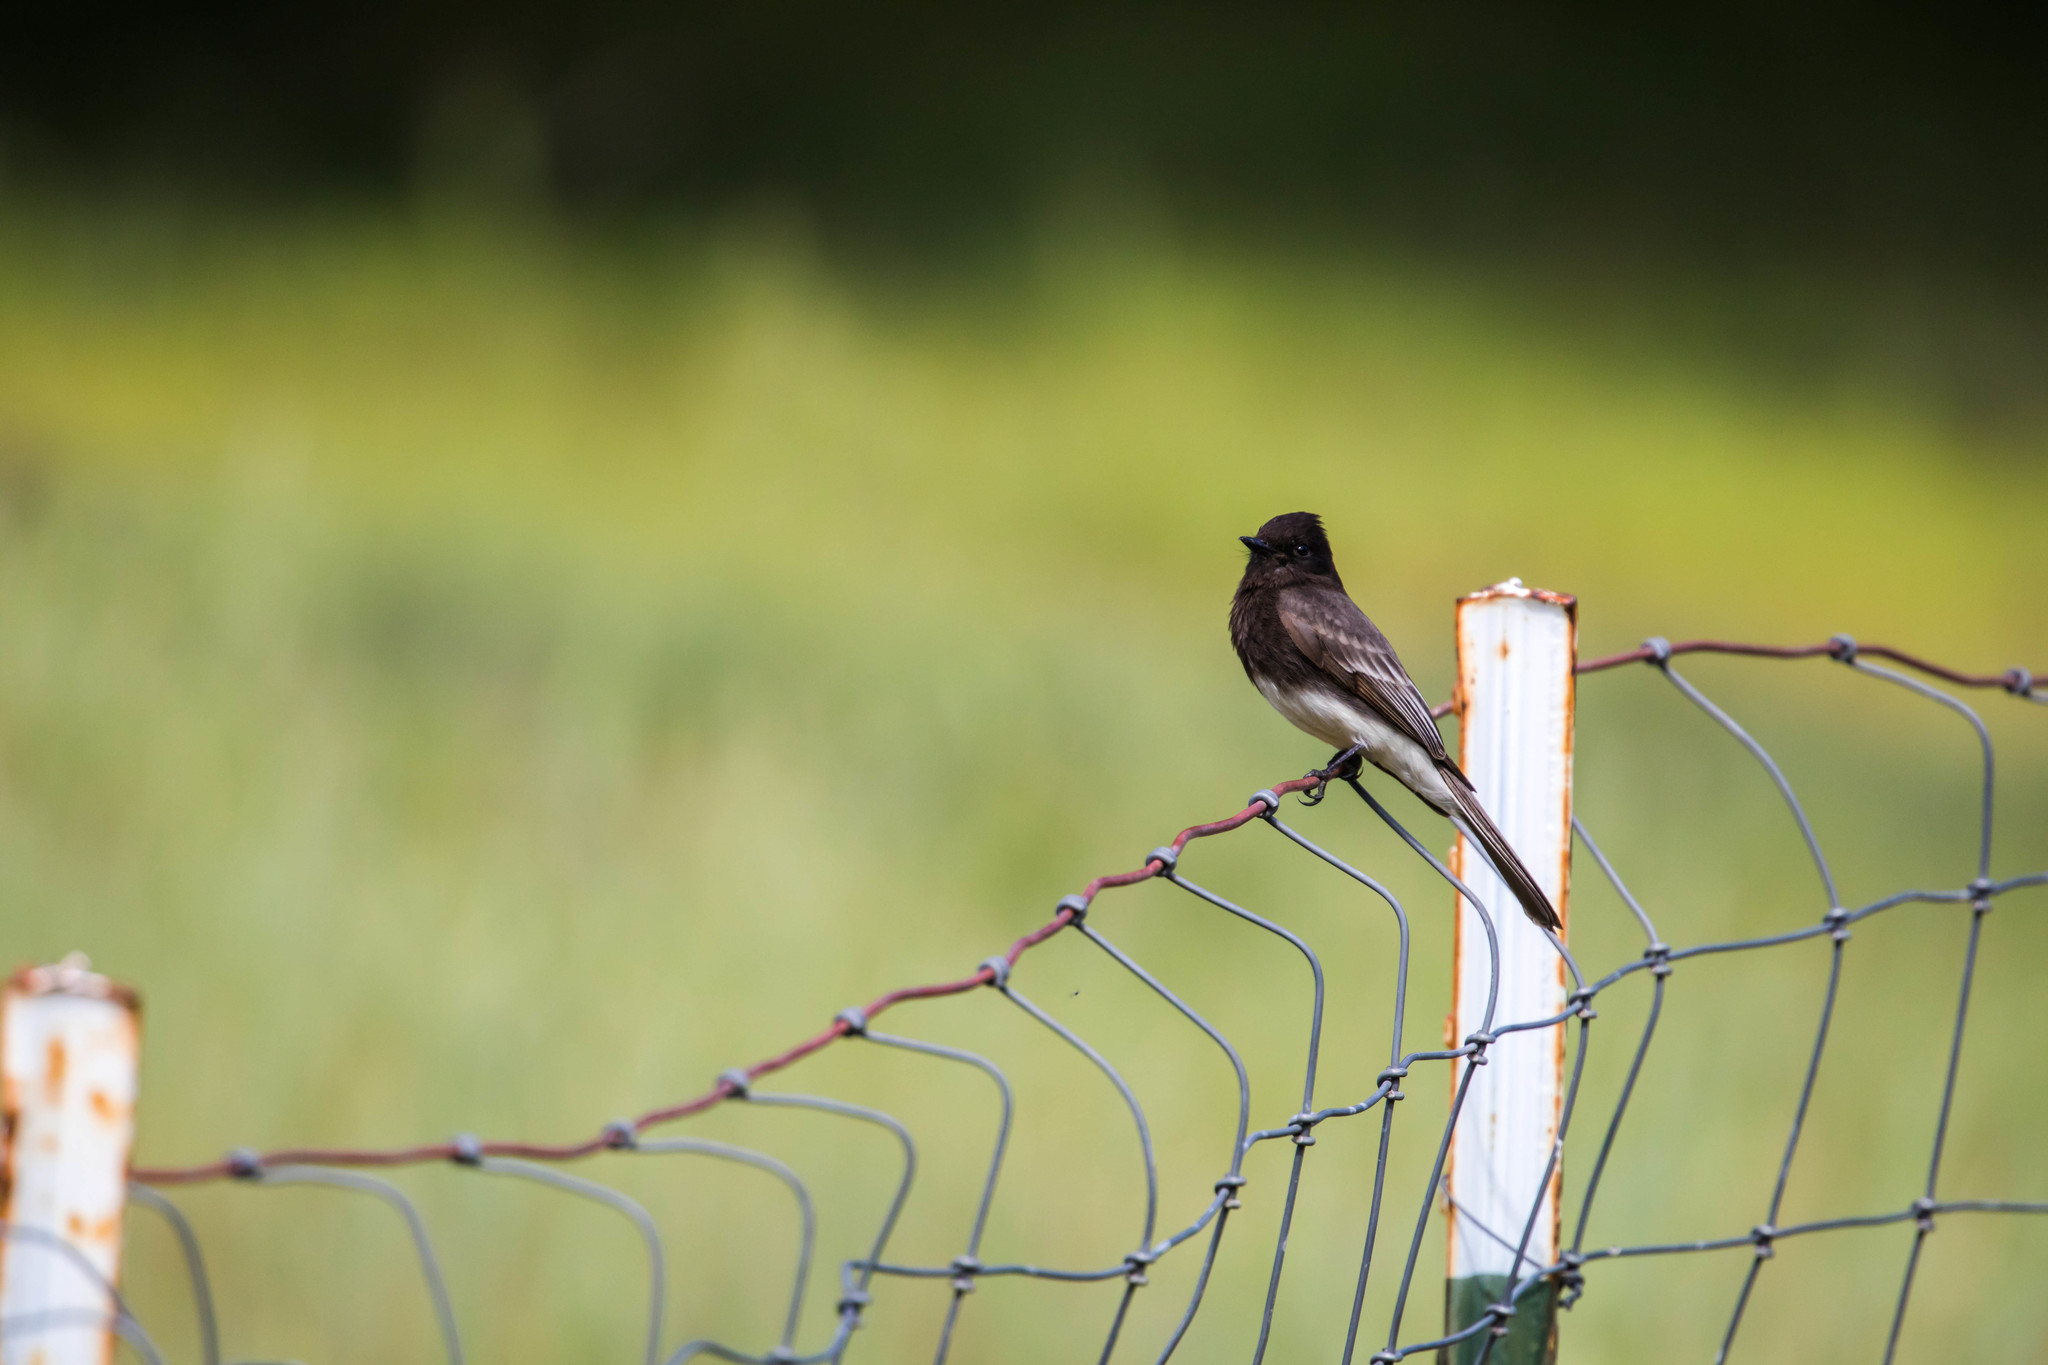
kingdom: Animalia
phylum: Chordata
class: Aves
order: Passeriformes
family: Tyrannidae
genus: Sayornis
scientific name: Sayornis nigricans
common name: Black phoebe
